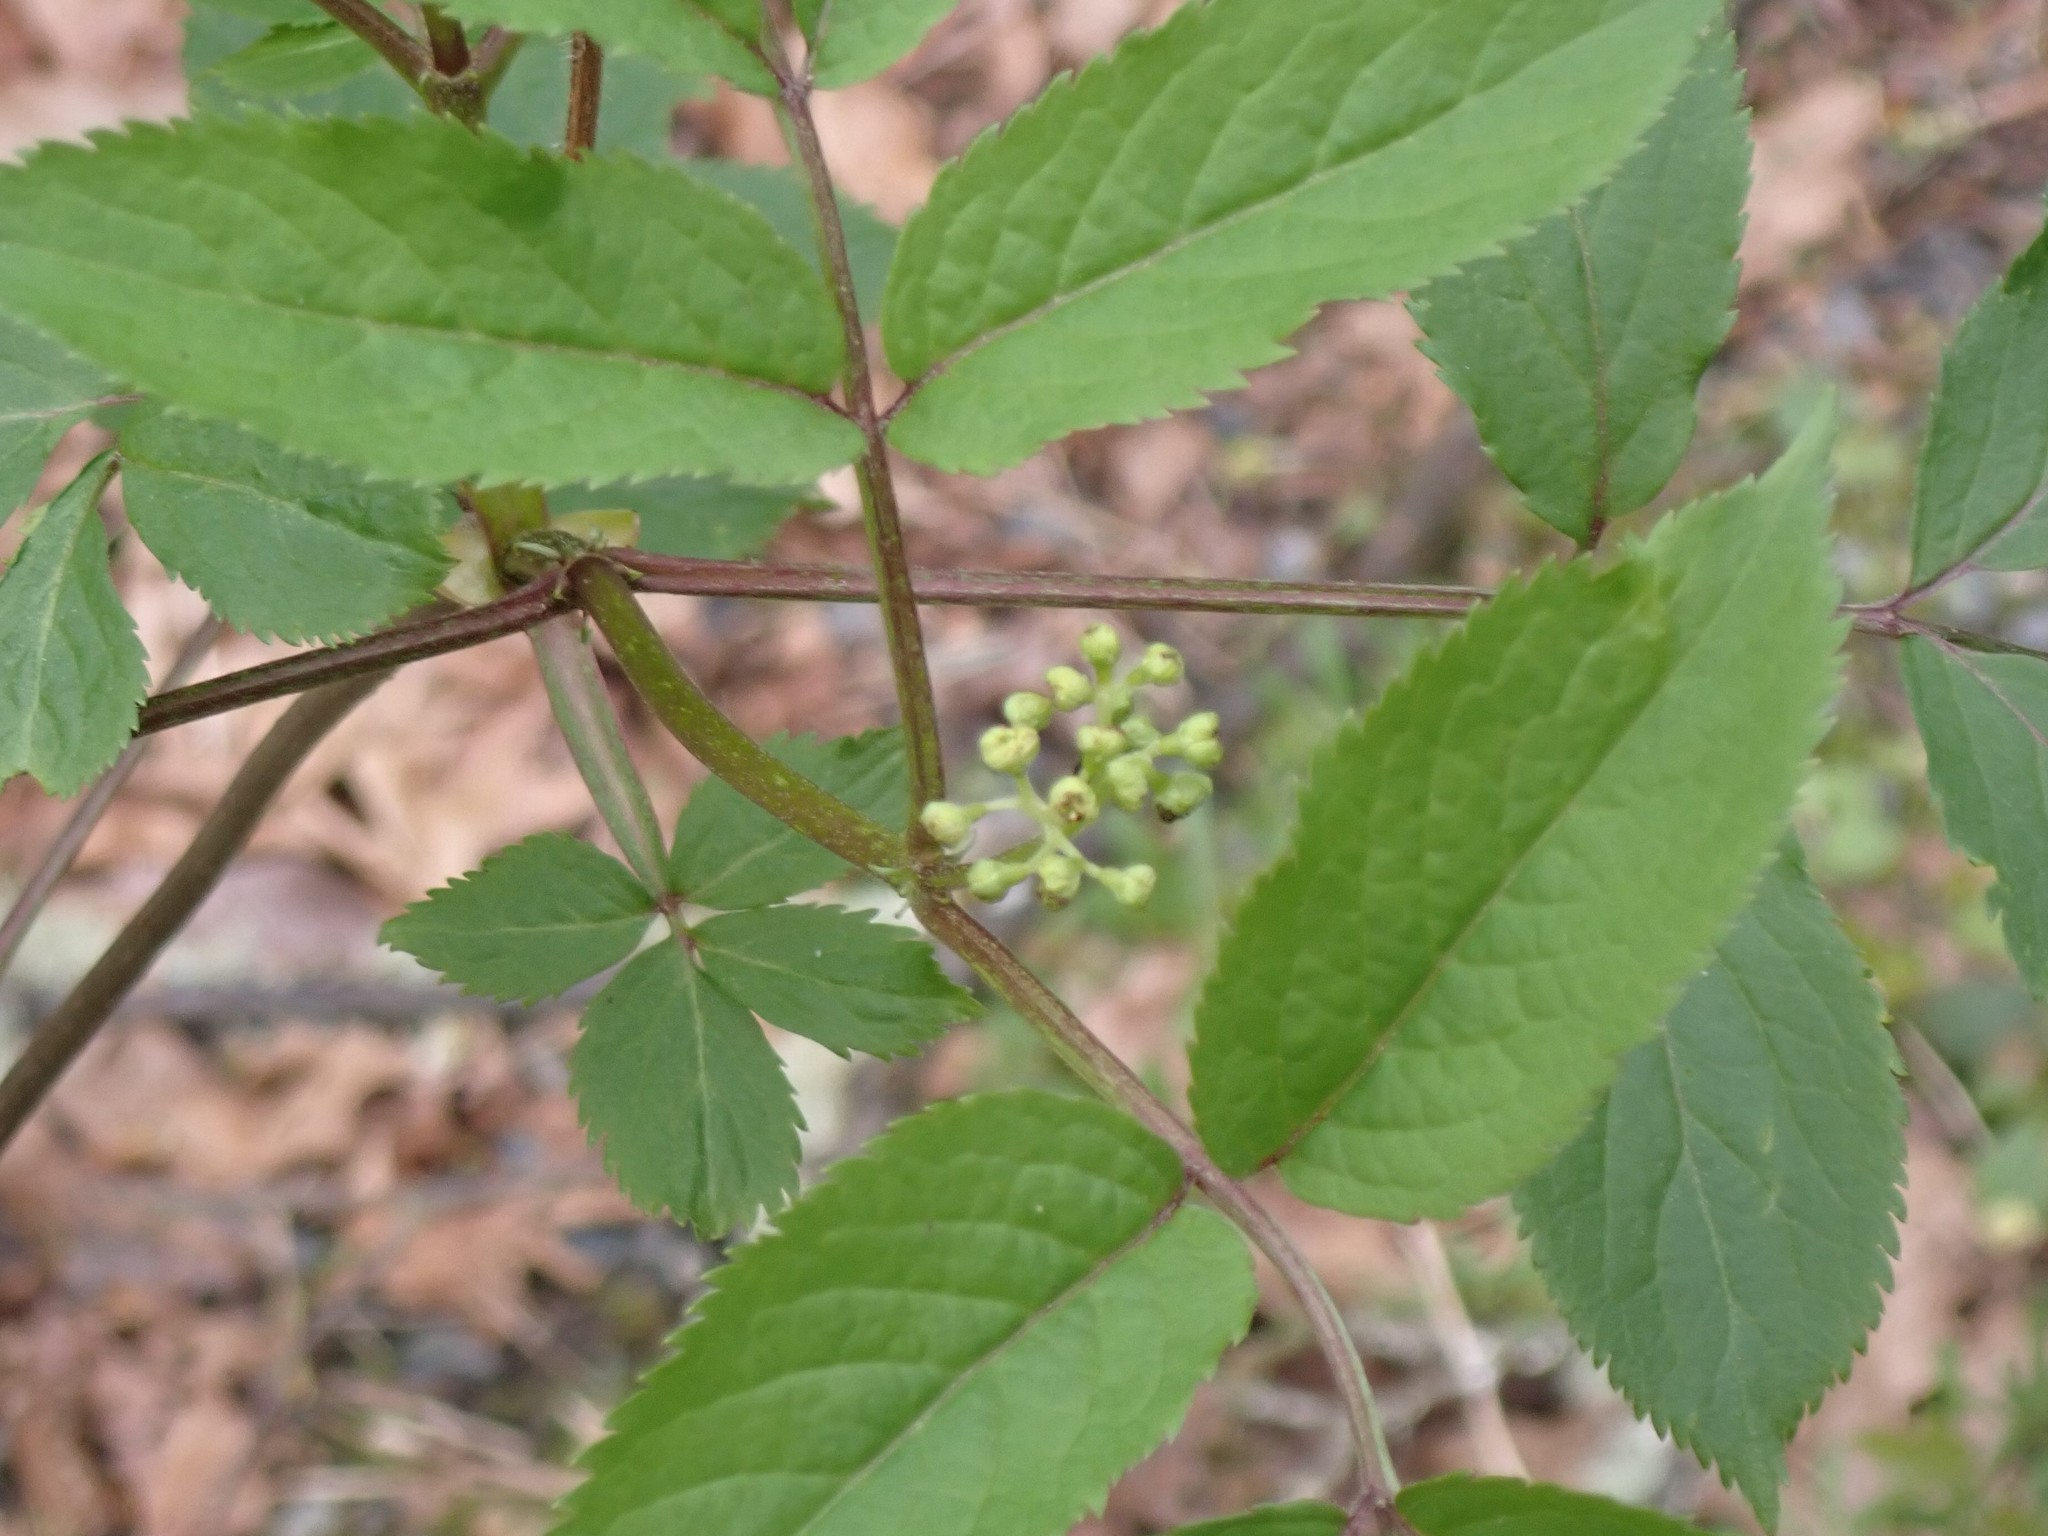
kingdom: Plantae
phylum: Tracheophyta
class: Magnoliopsida
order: Dipsacales
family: Viburnaceae
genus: Sambucus
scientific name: Sambucus racemosa
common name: Red-berried elder
